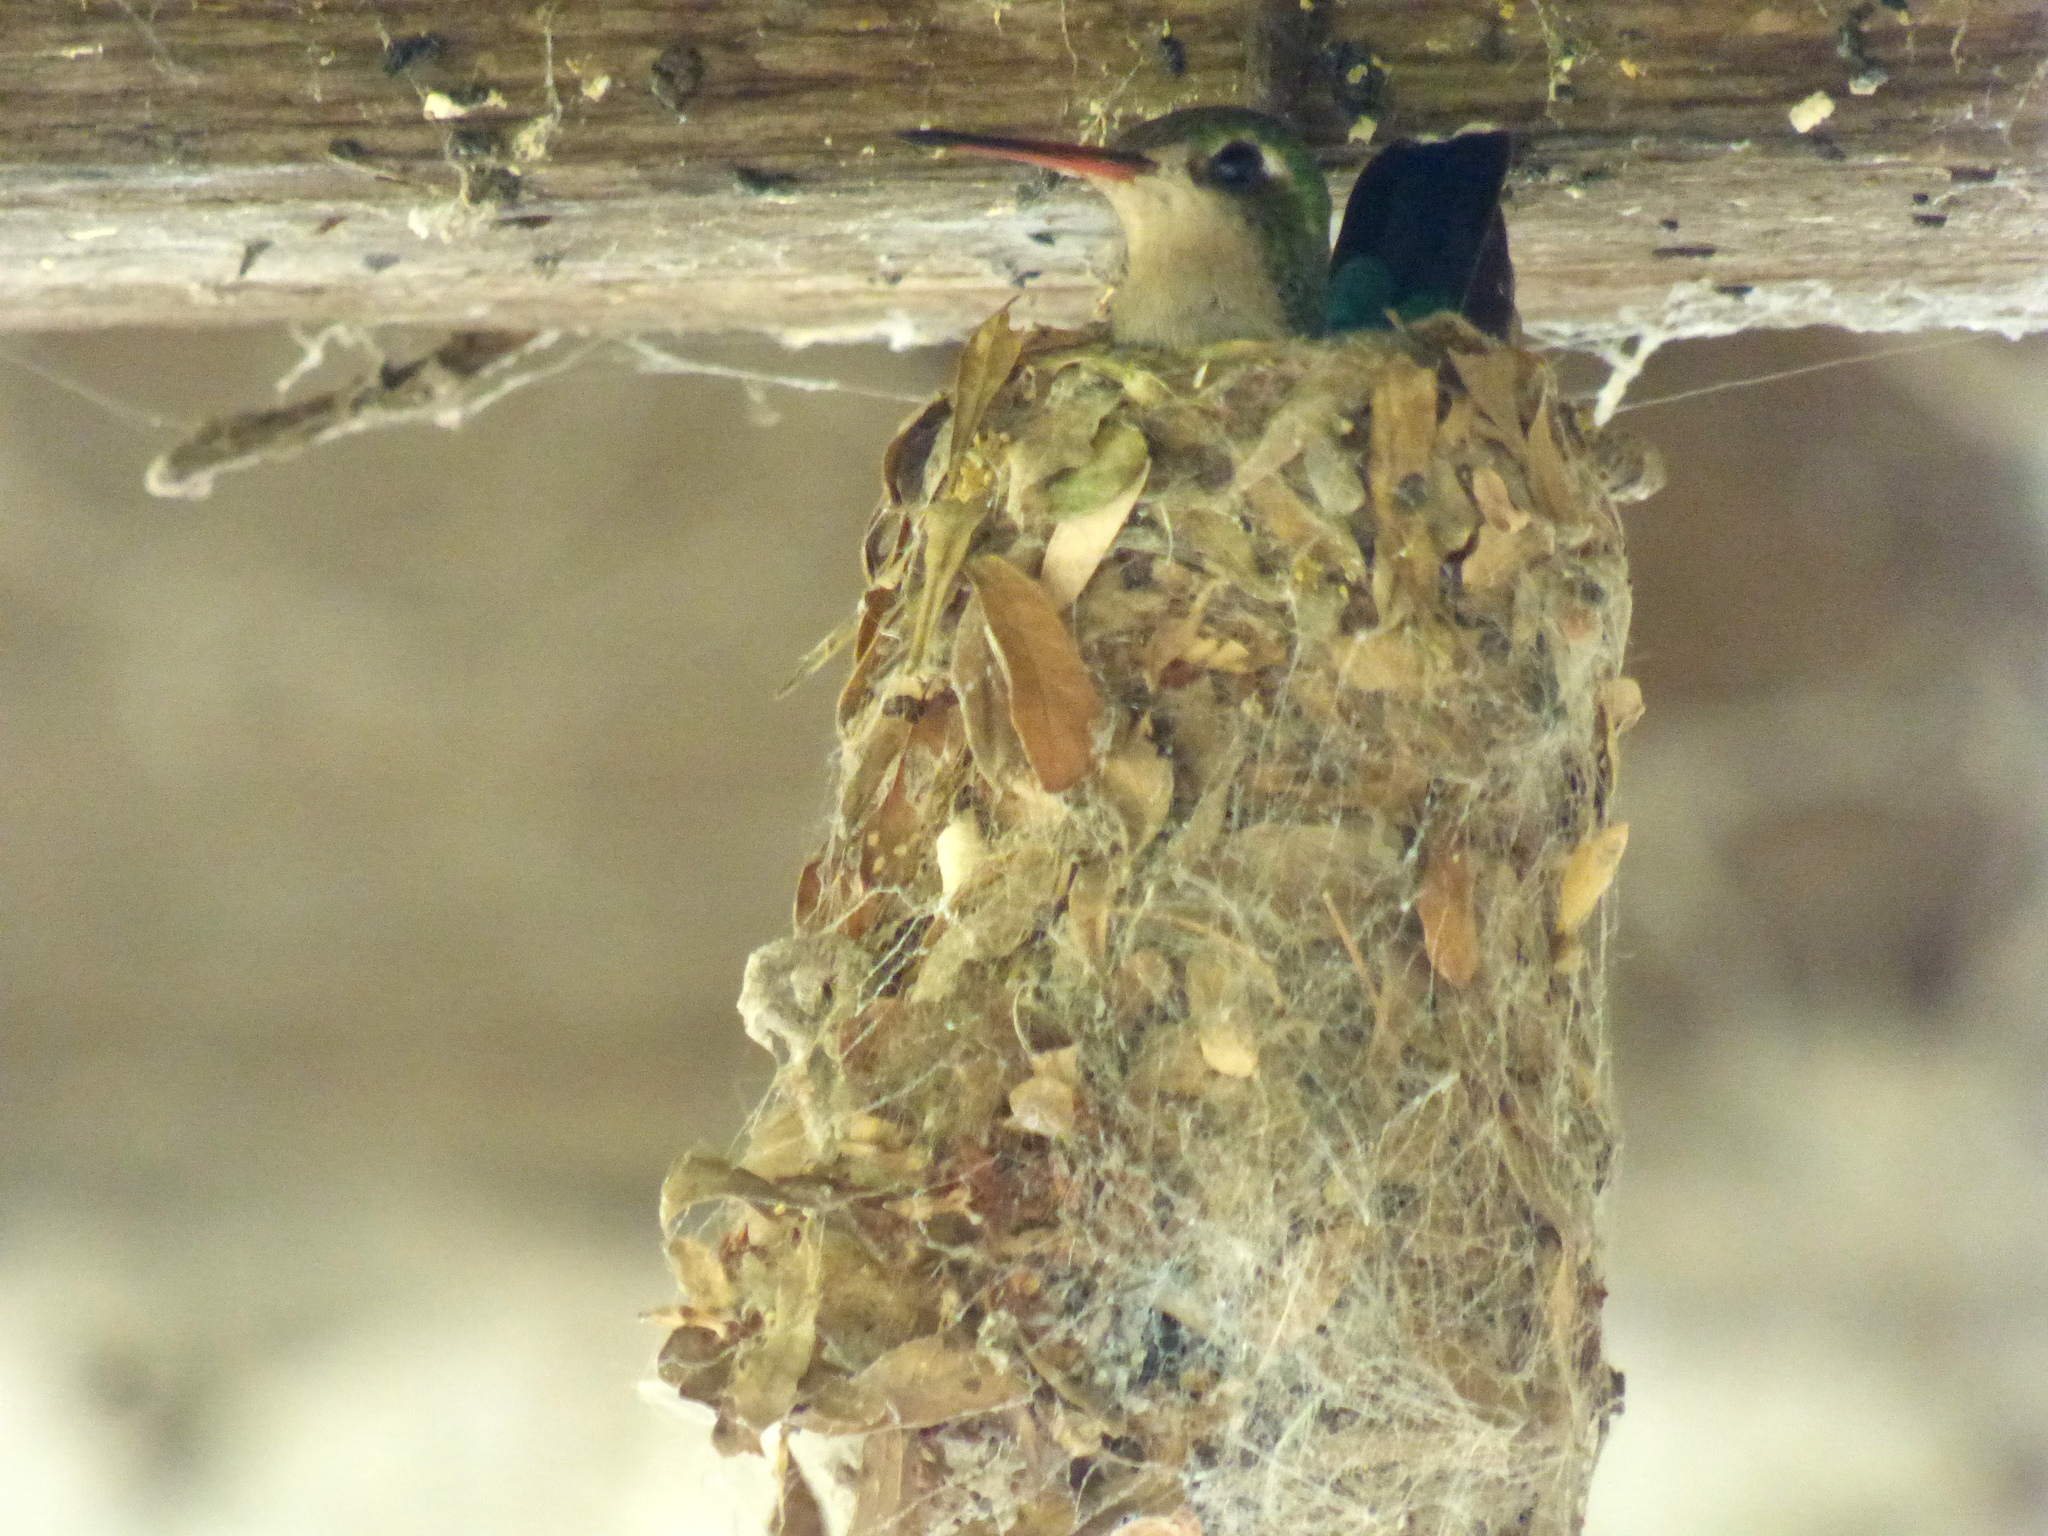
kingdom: Animalia
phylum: Chordata
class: Aves
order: Apodiformes
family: Trochilidae
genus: Chlorostilbon
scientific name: Chlorostilbon lucidus
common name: Glittering-bellied emerald
